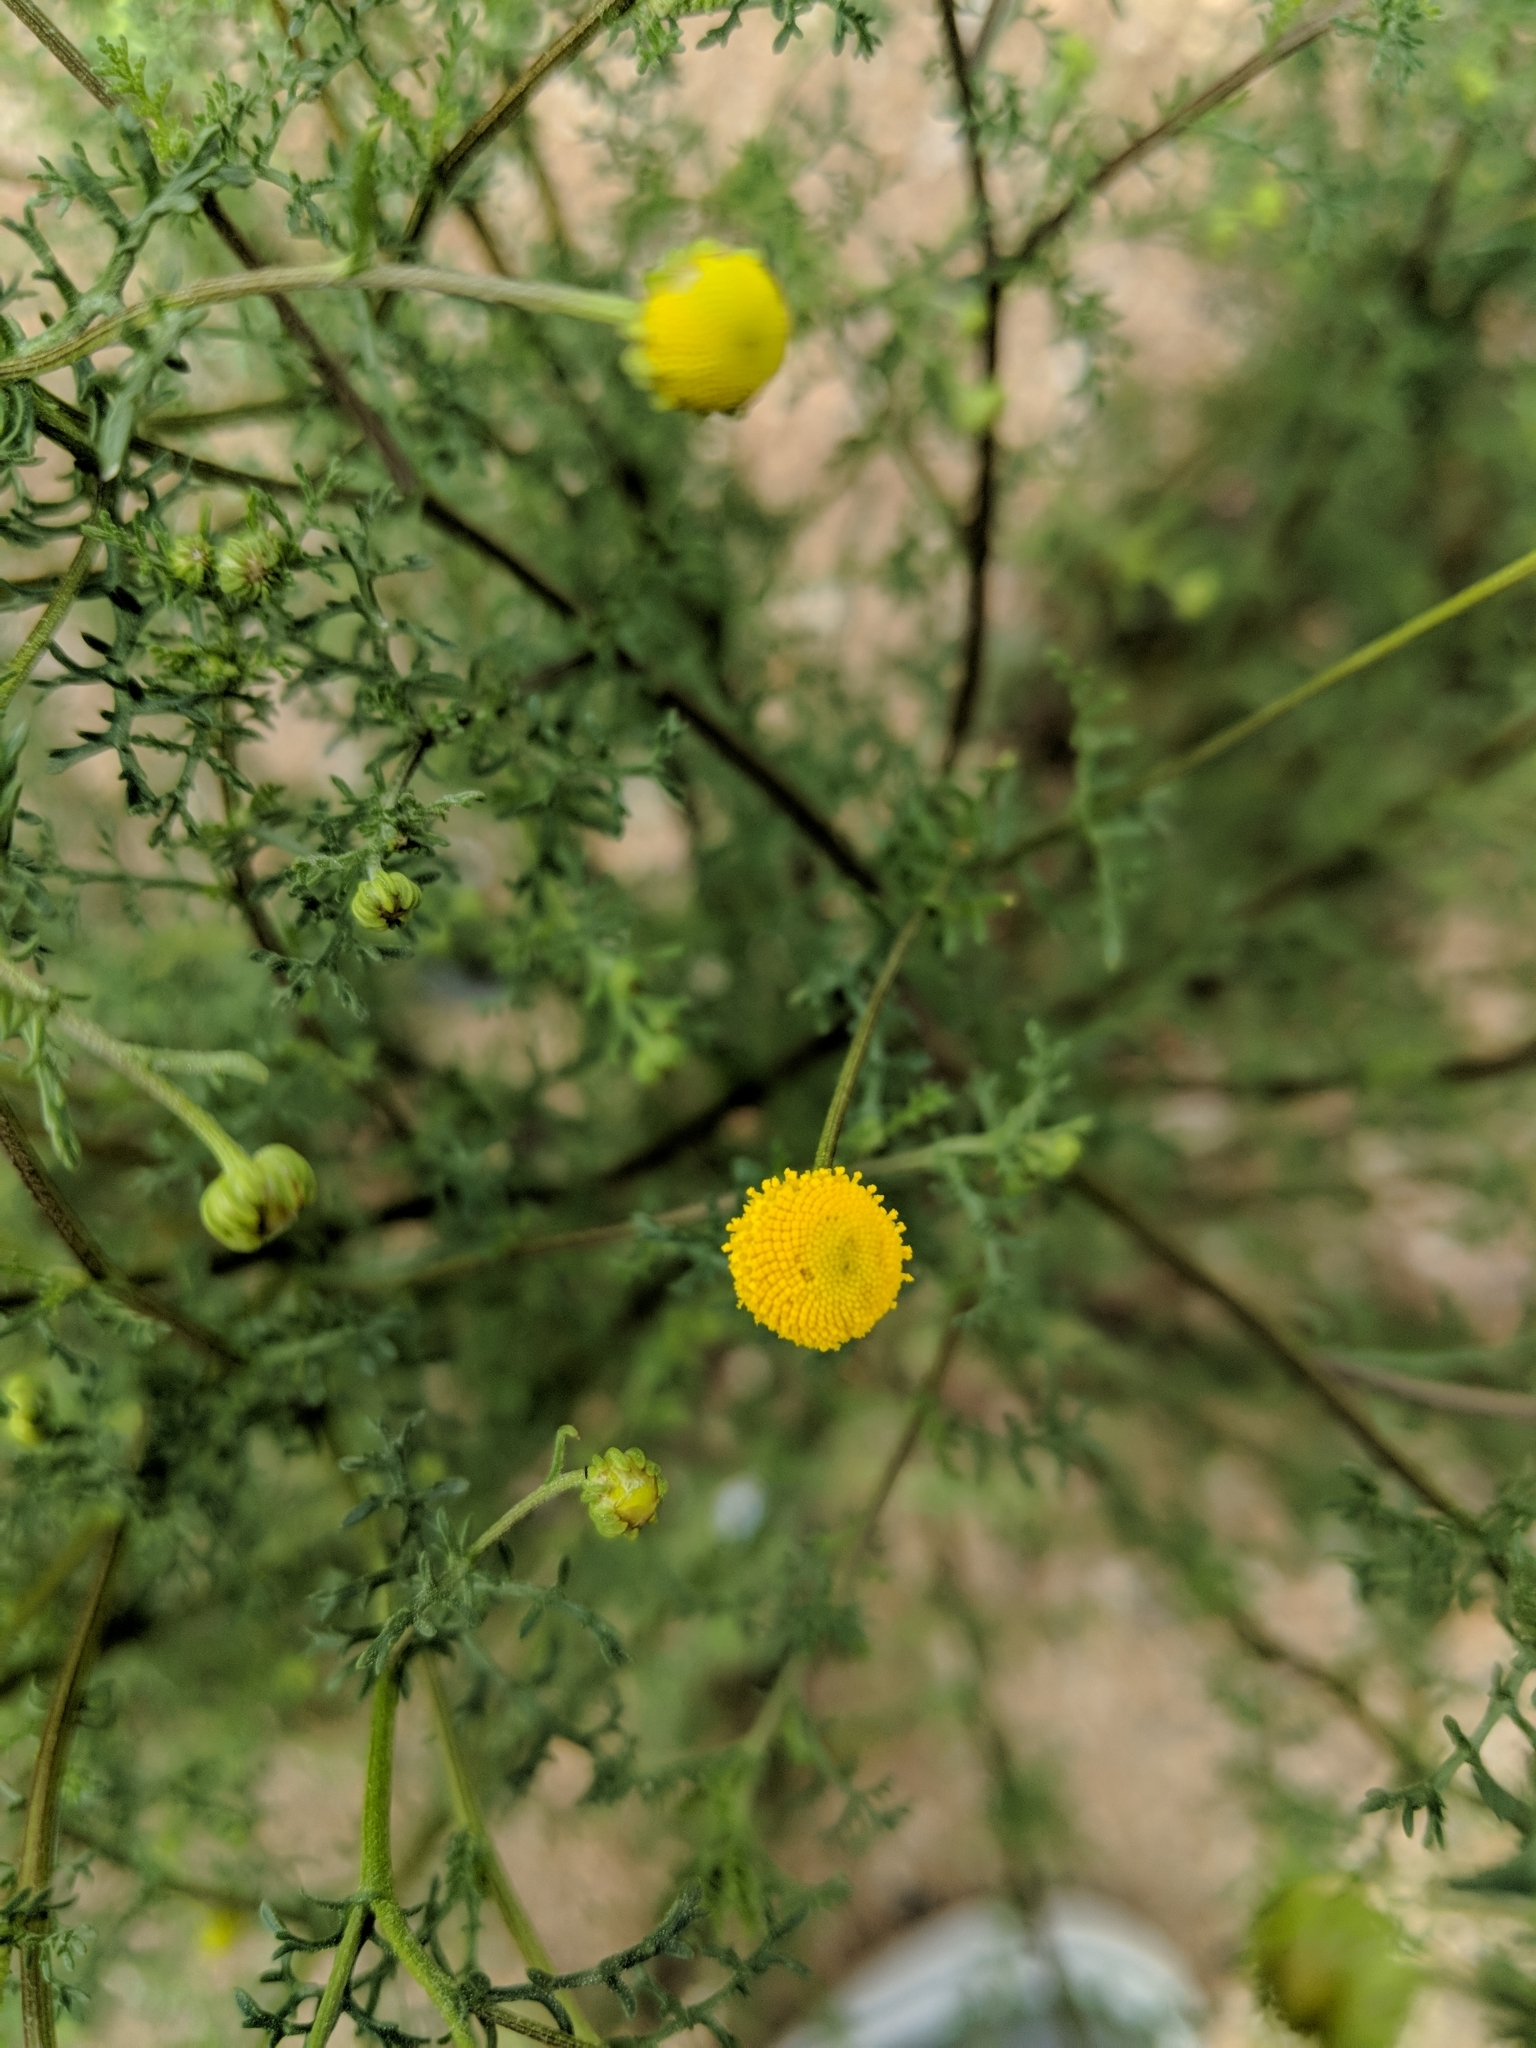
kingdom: Plantae
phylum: Tracheophyta
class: Magnoliopsida
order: Asterales
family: Asteraceae
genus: Oncosiphon
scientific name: Oncosiphon pilulifer
